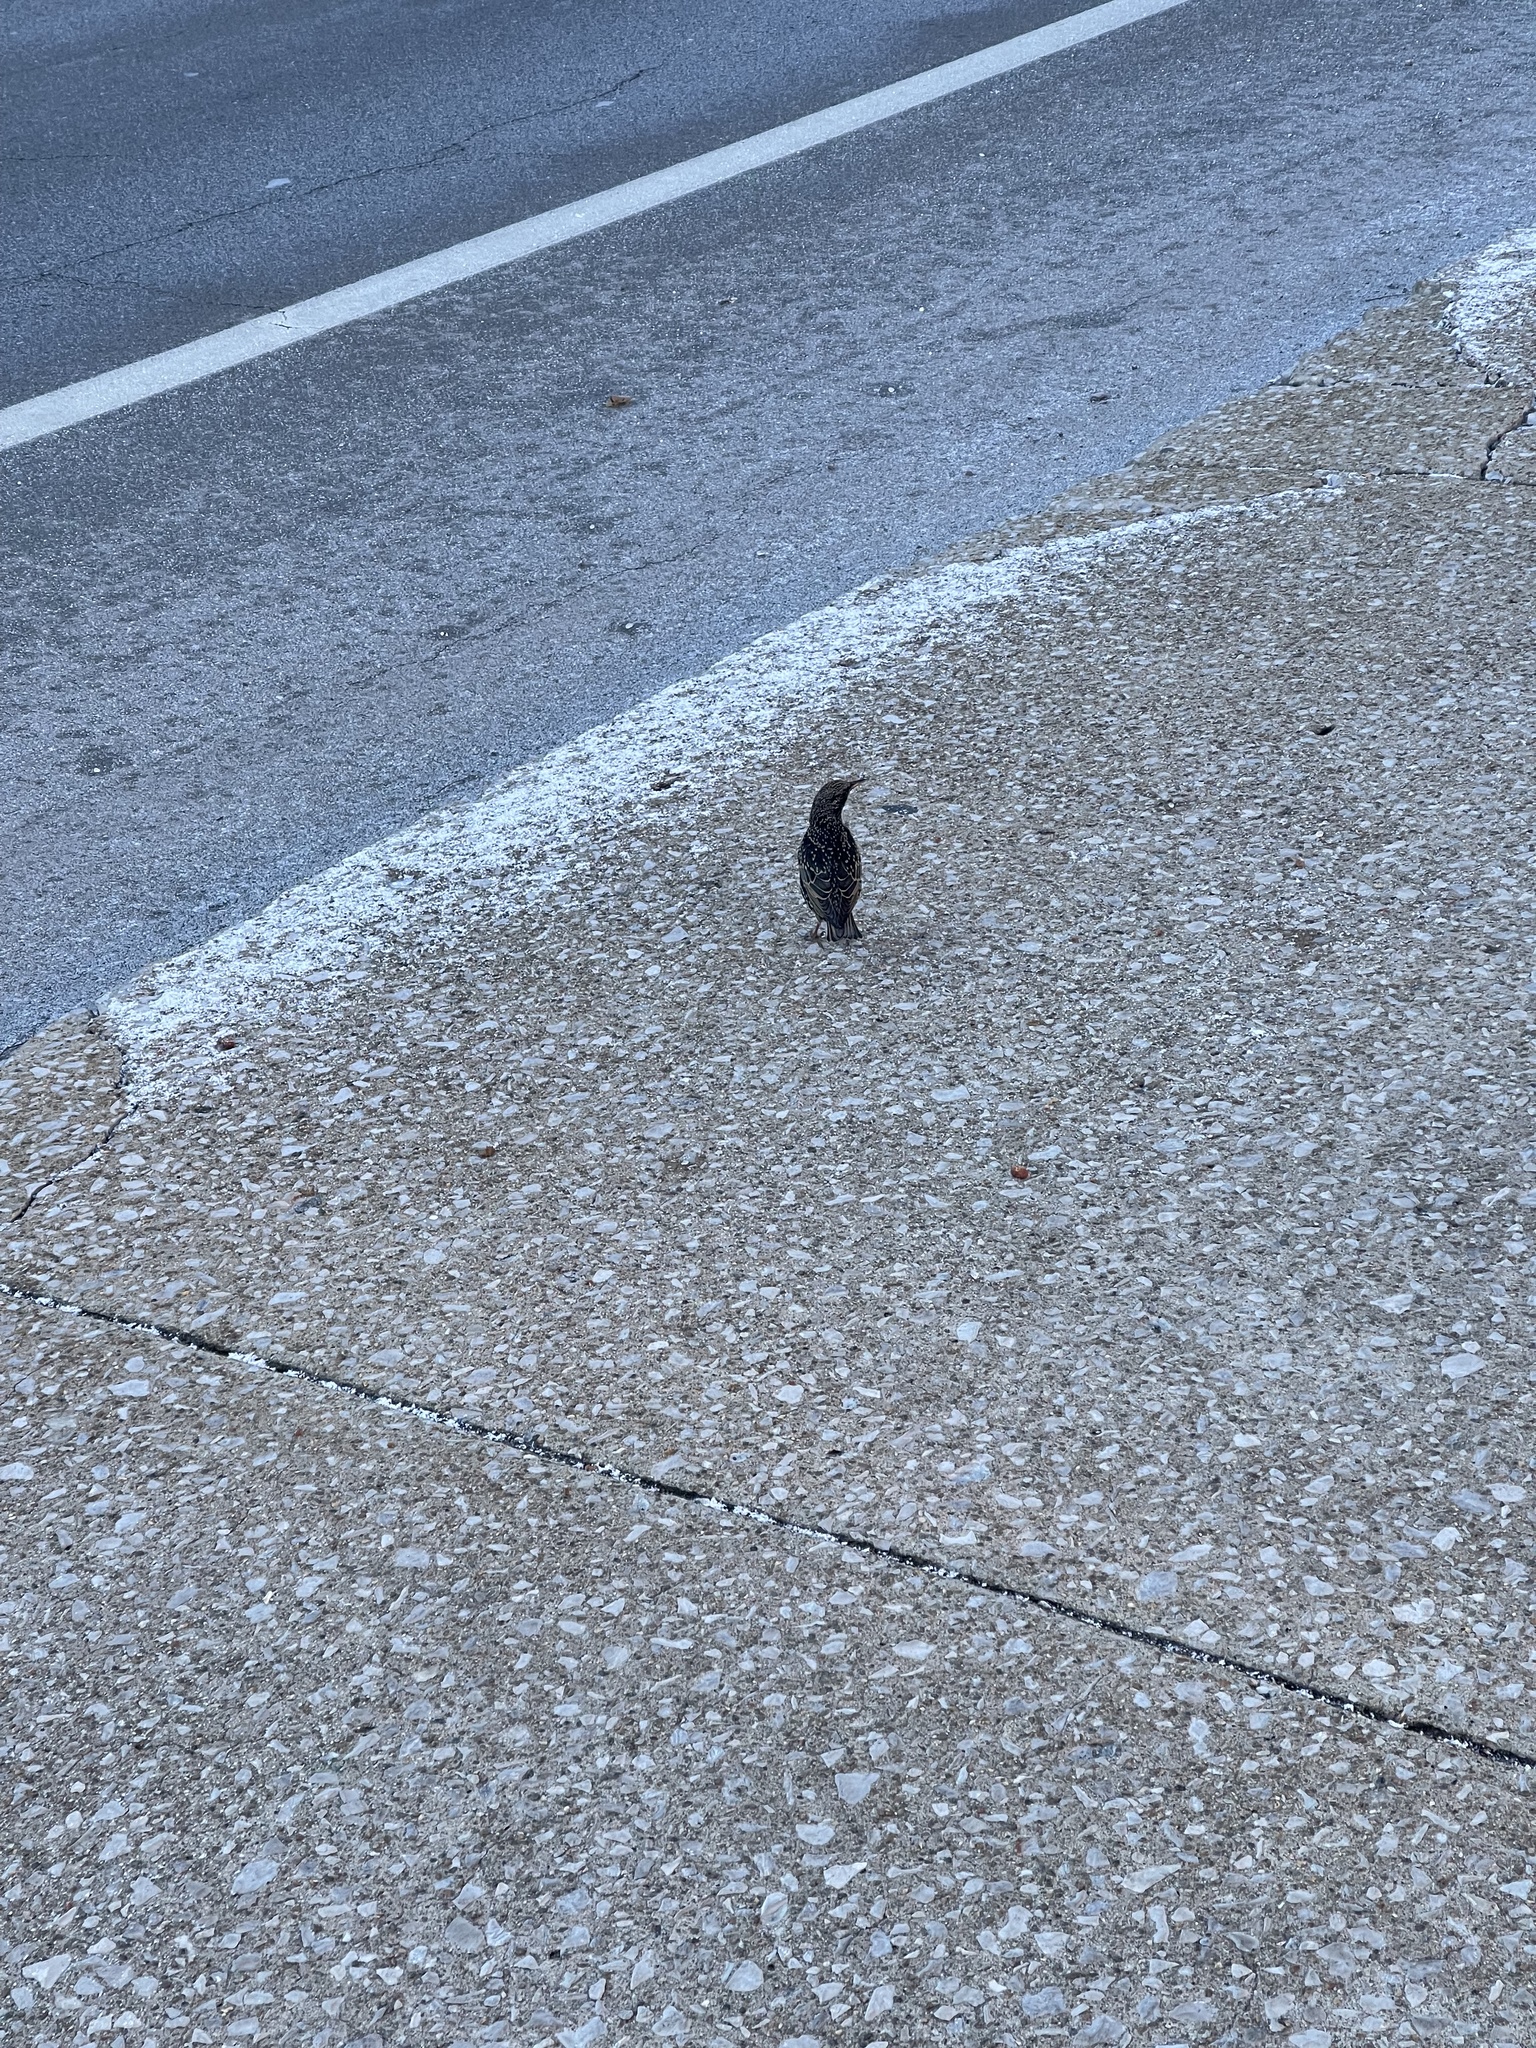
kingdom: Animalia
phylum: Chordata
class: Aves
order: Passeriformes
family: Sturnidae
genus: Sturnus
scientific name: Sturnus vulgaris
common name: Common starling
